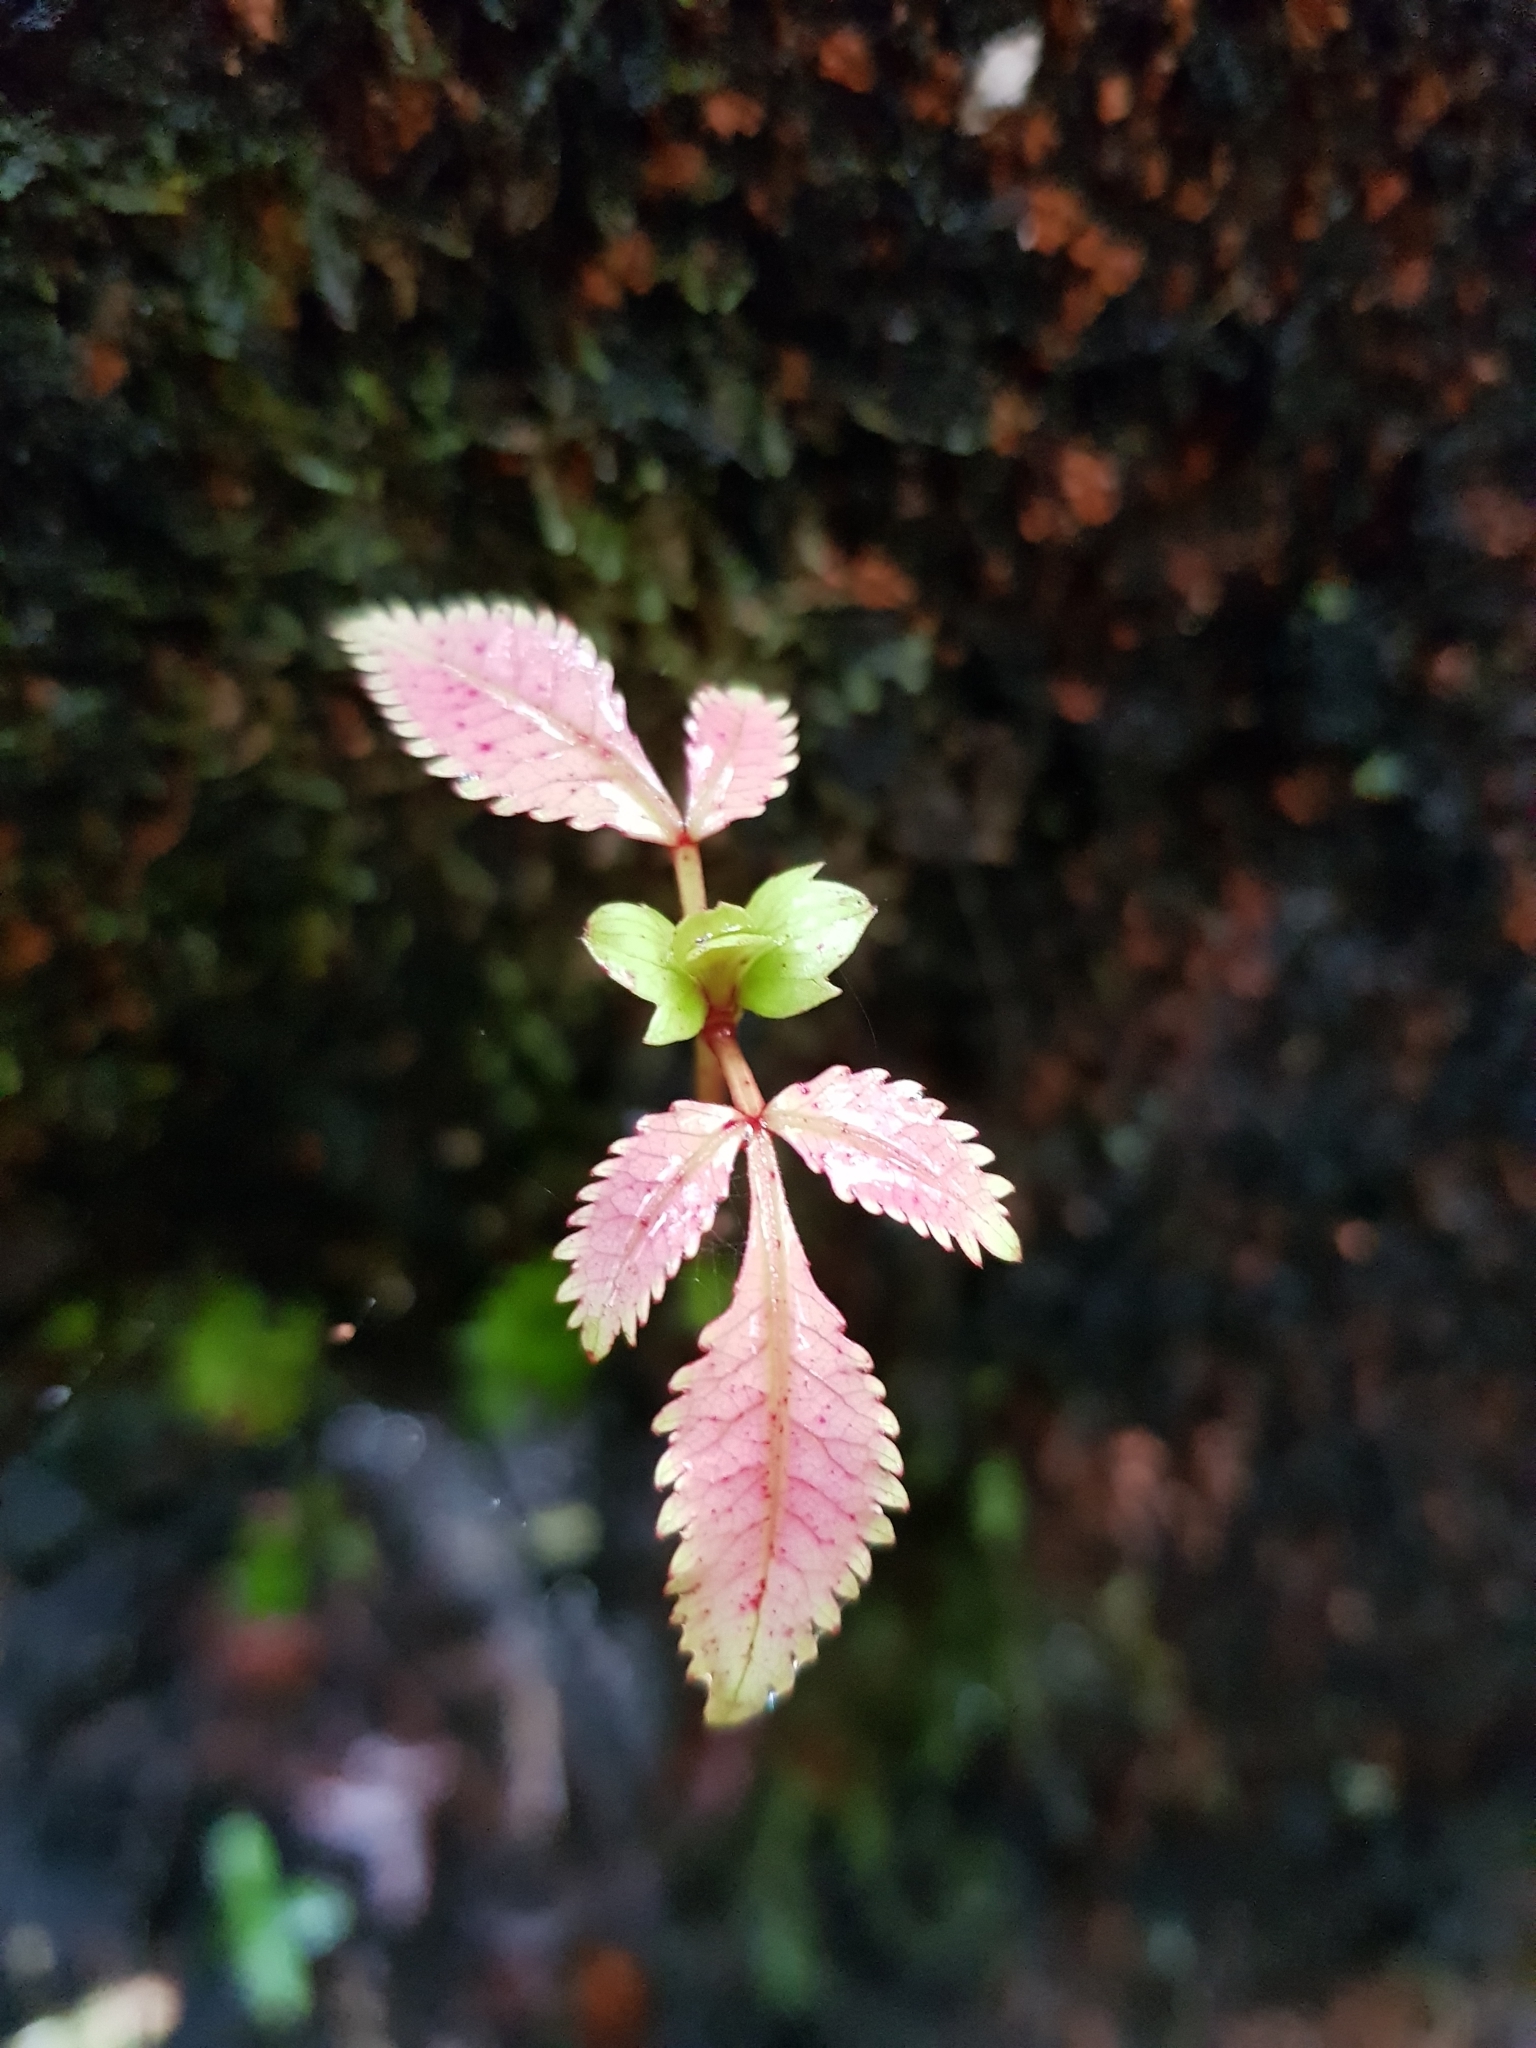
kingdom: Plantae
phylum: Tracheophyta
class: Magnoliopsida
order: Oxalidales
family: Cunoniaceae
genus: Pterophylla
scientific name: Pterophylla racemosa
